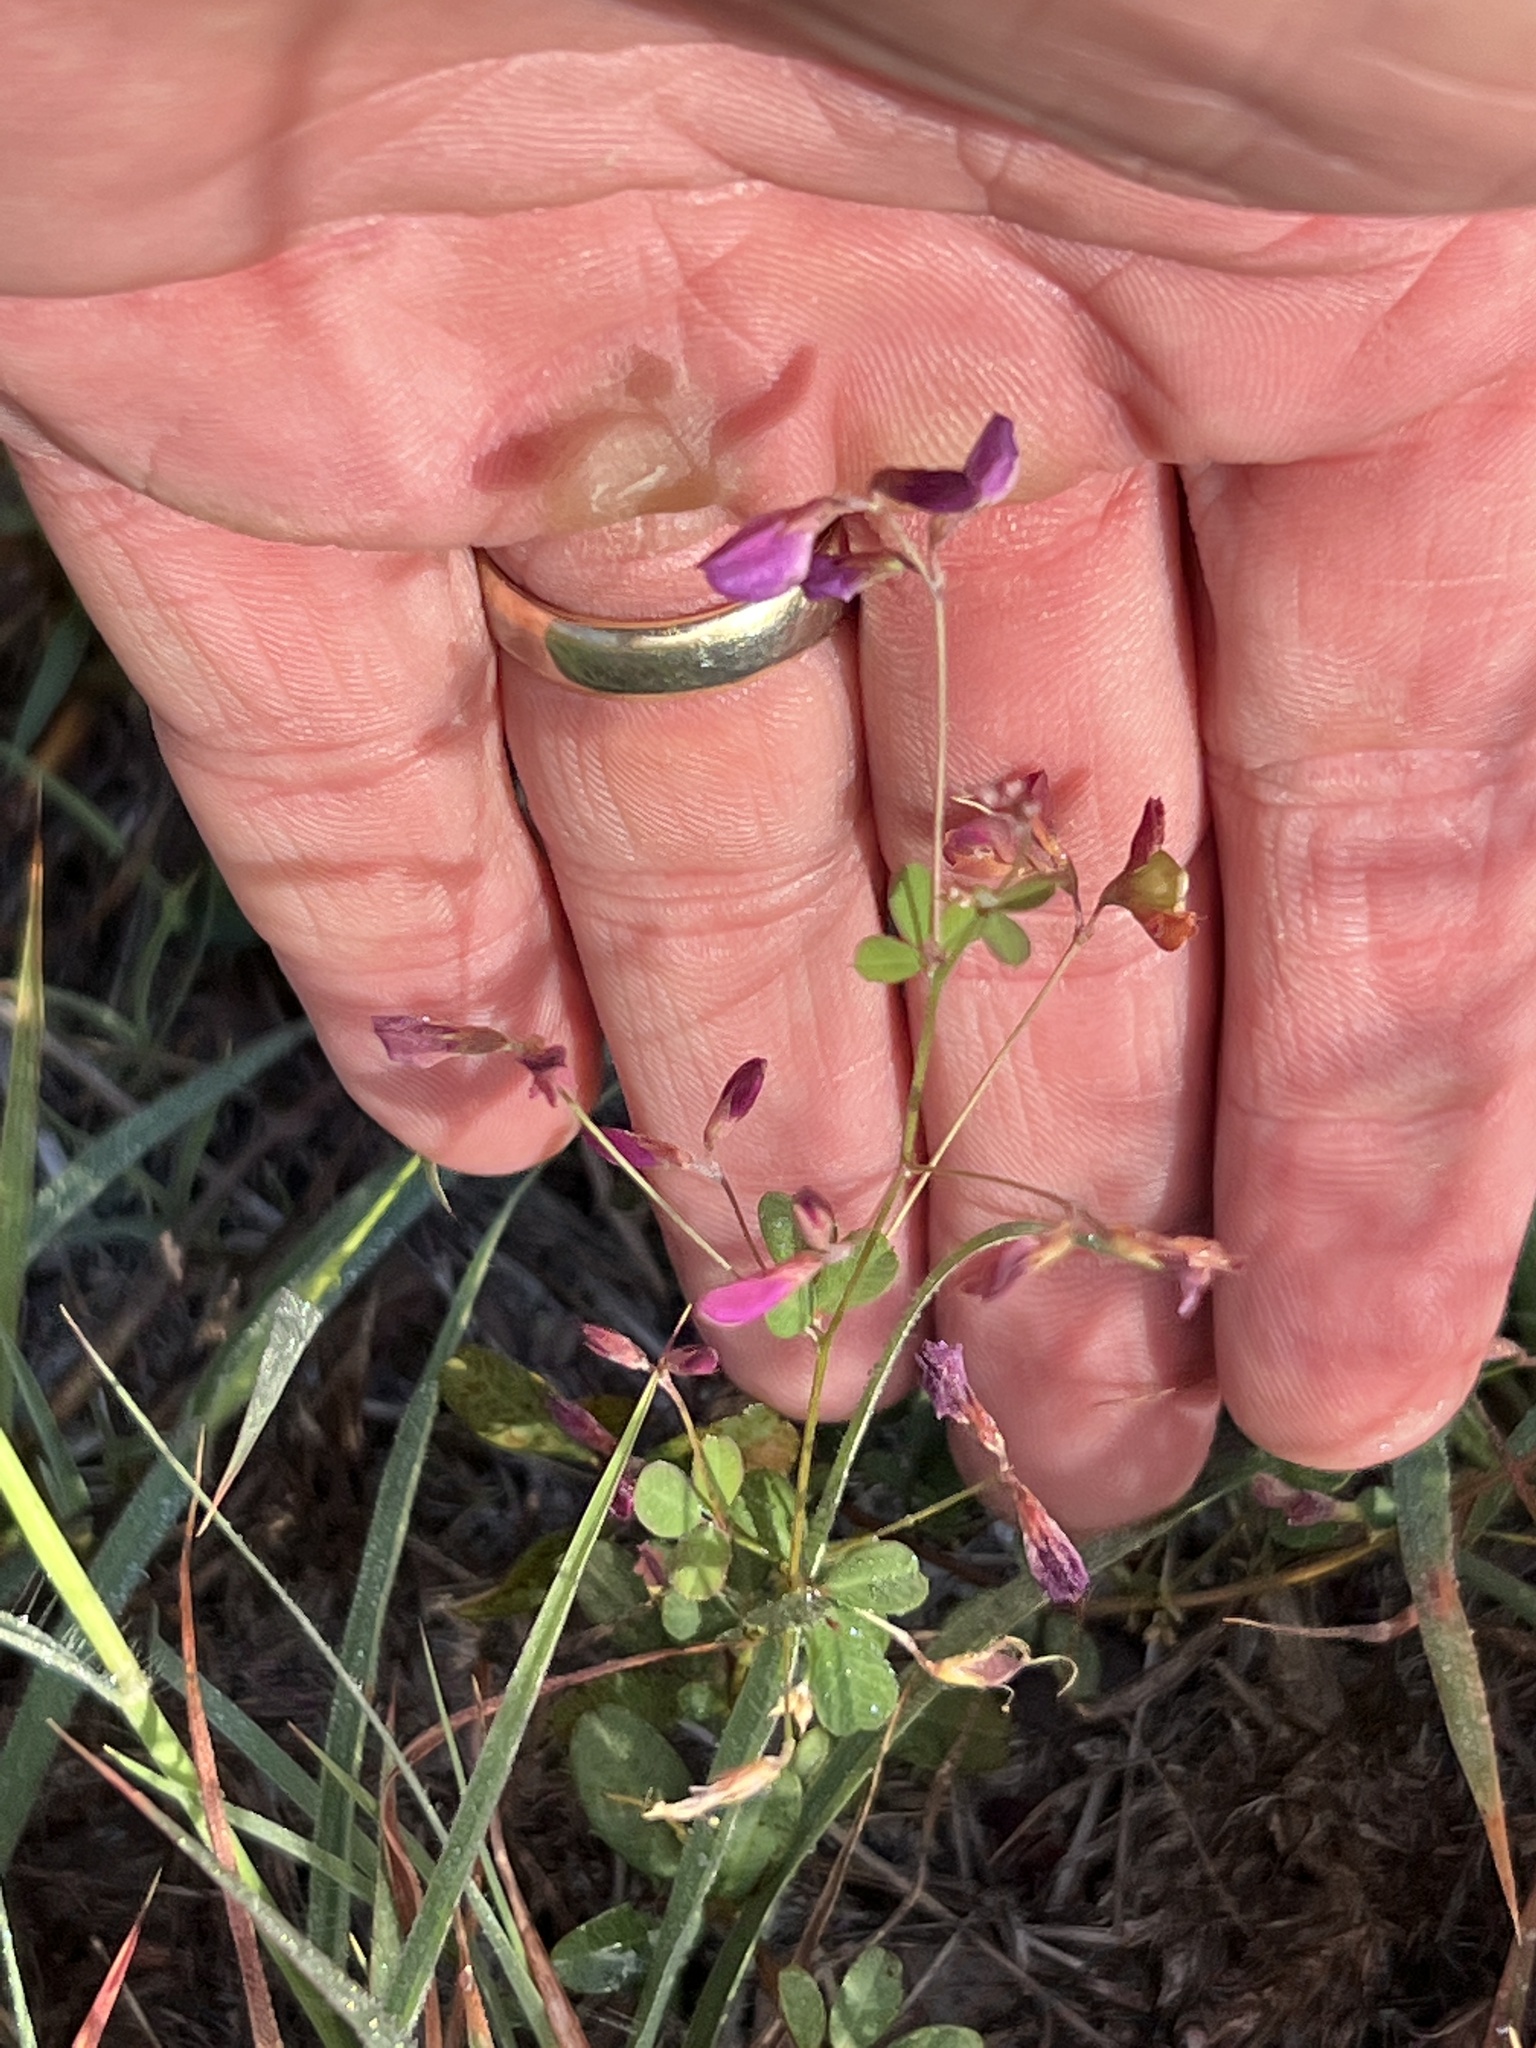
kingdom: Plantae
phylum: Tracheophyta
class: Magnoliopsida
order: Fabales
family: Fabaceae
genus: Lespedeza
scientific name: Lespedeza texana
